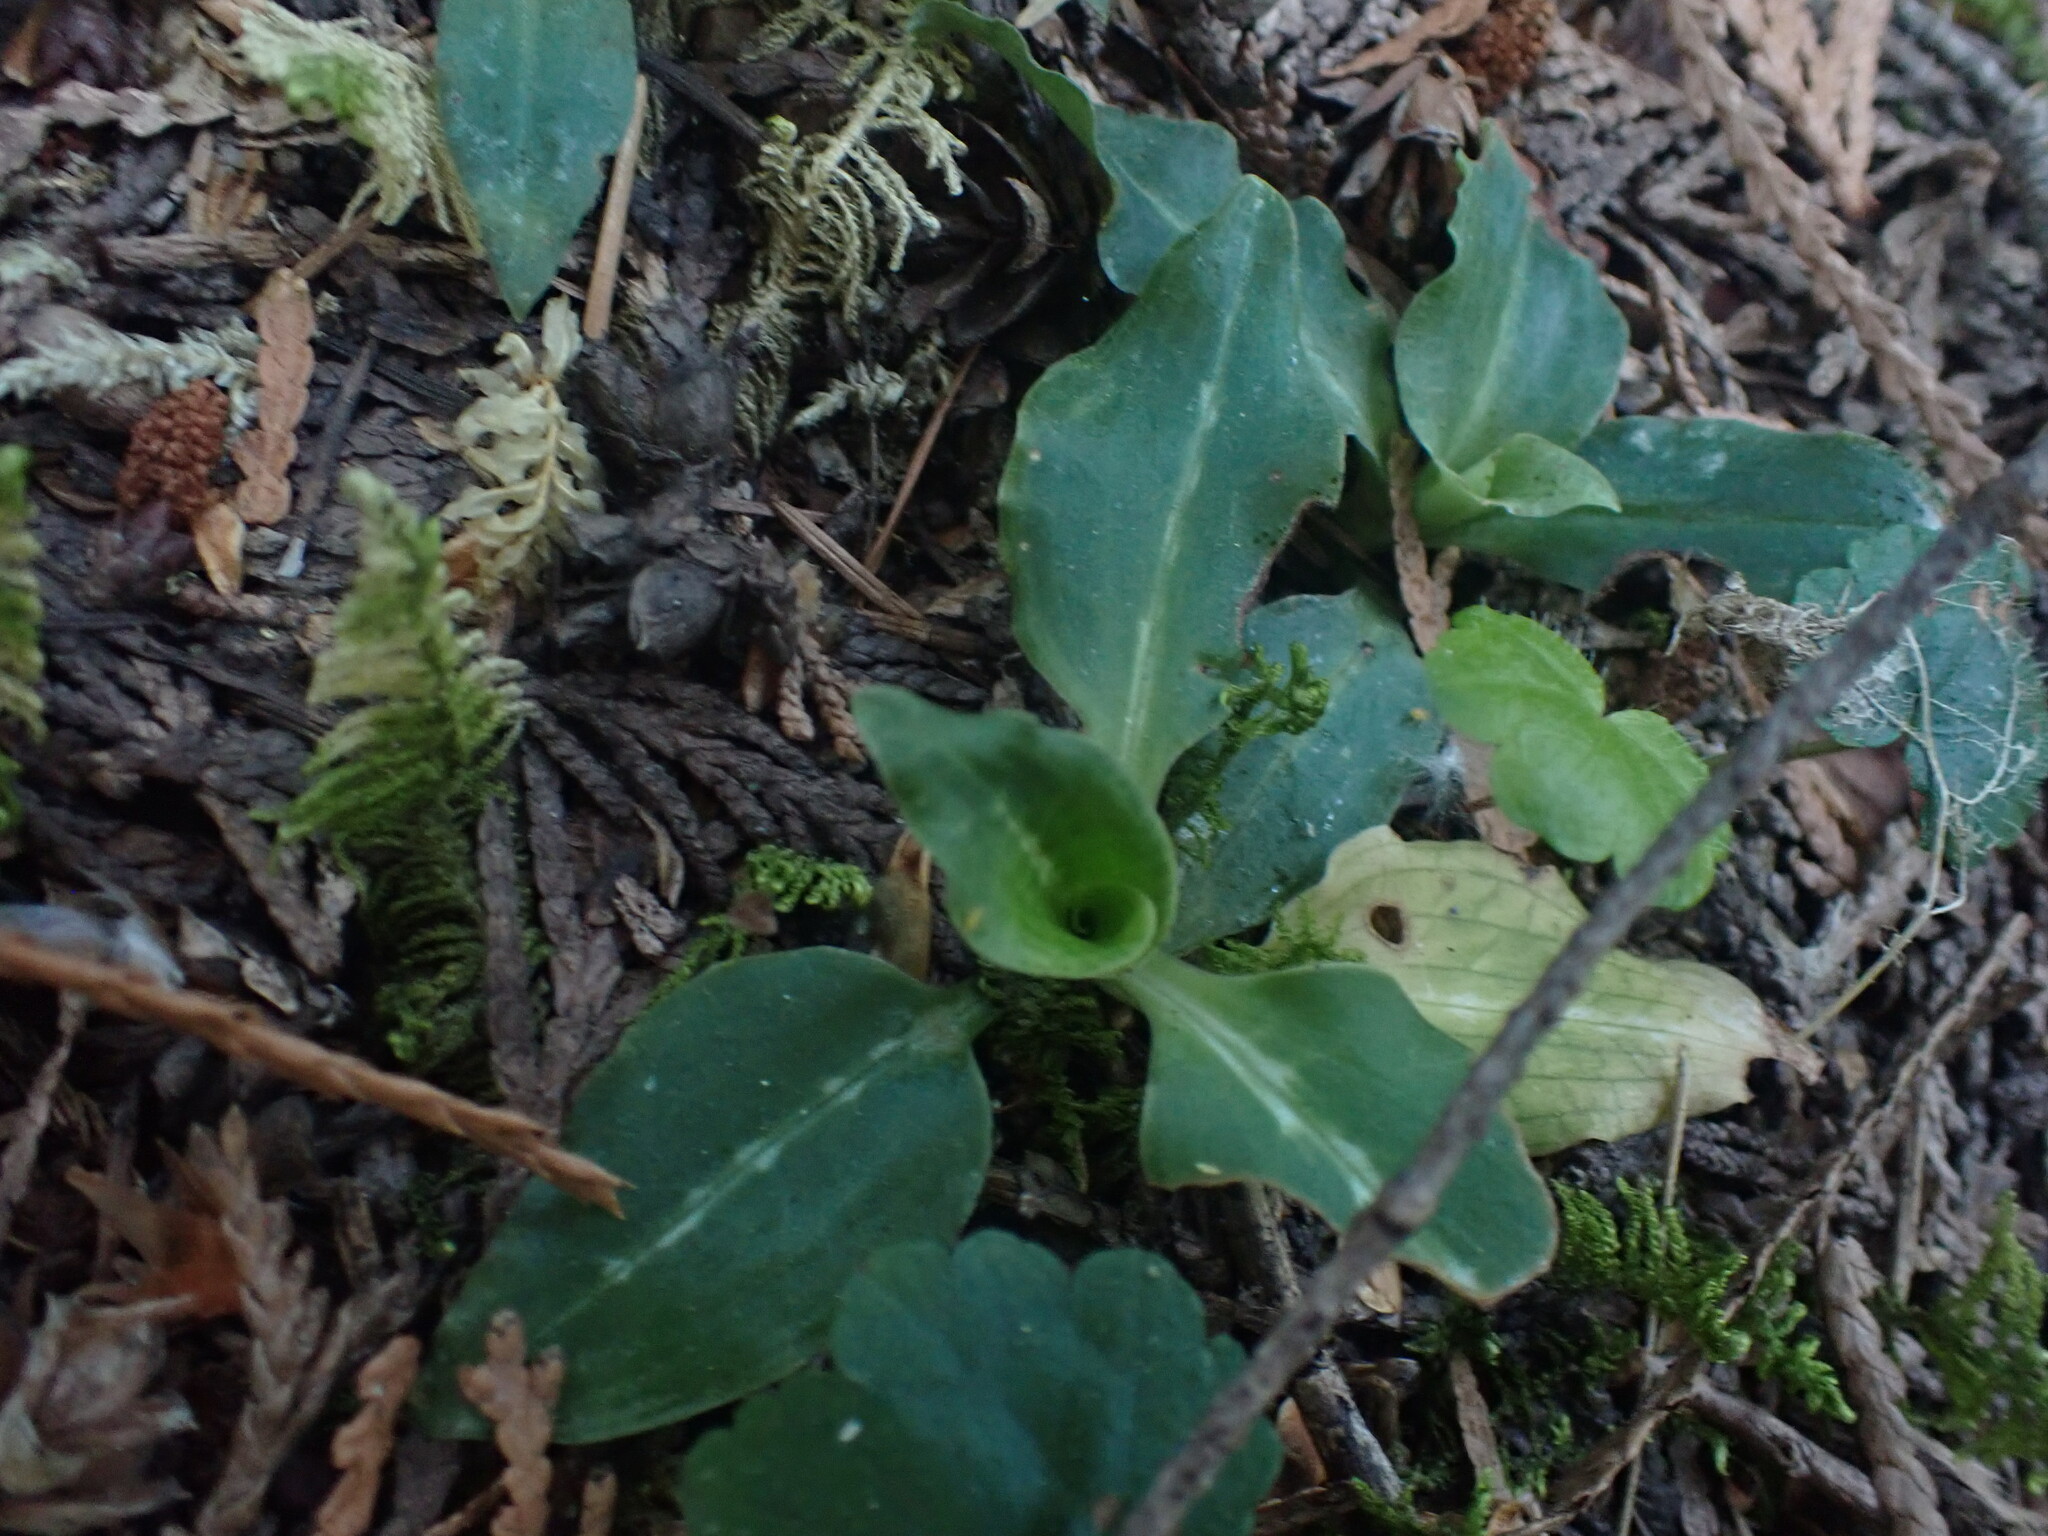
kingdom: Plantae
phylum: Tracheophyta
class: Liliopsida
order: Asparagales
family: Orchidaceae
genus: Goodyera
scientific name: Goodyera oblongifolia
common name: Giant rattlesnake-plantain
